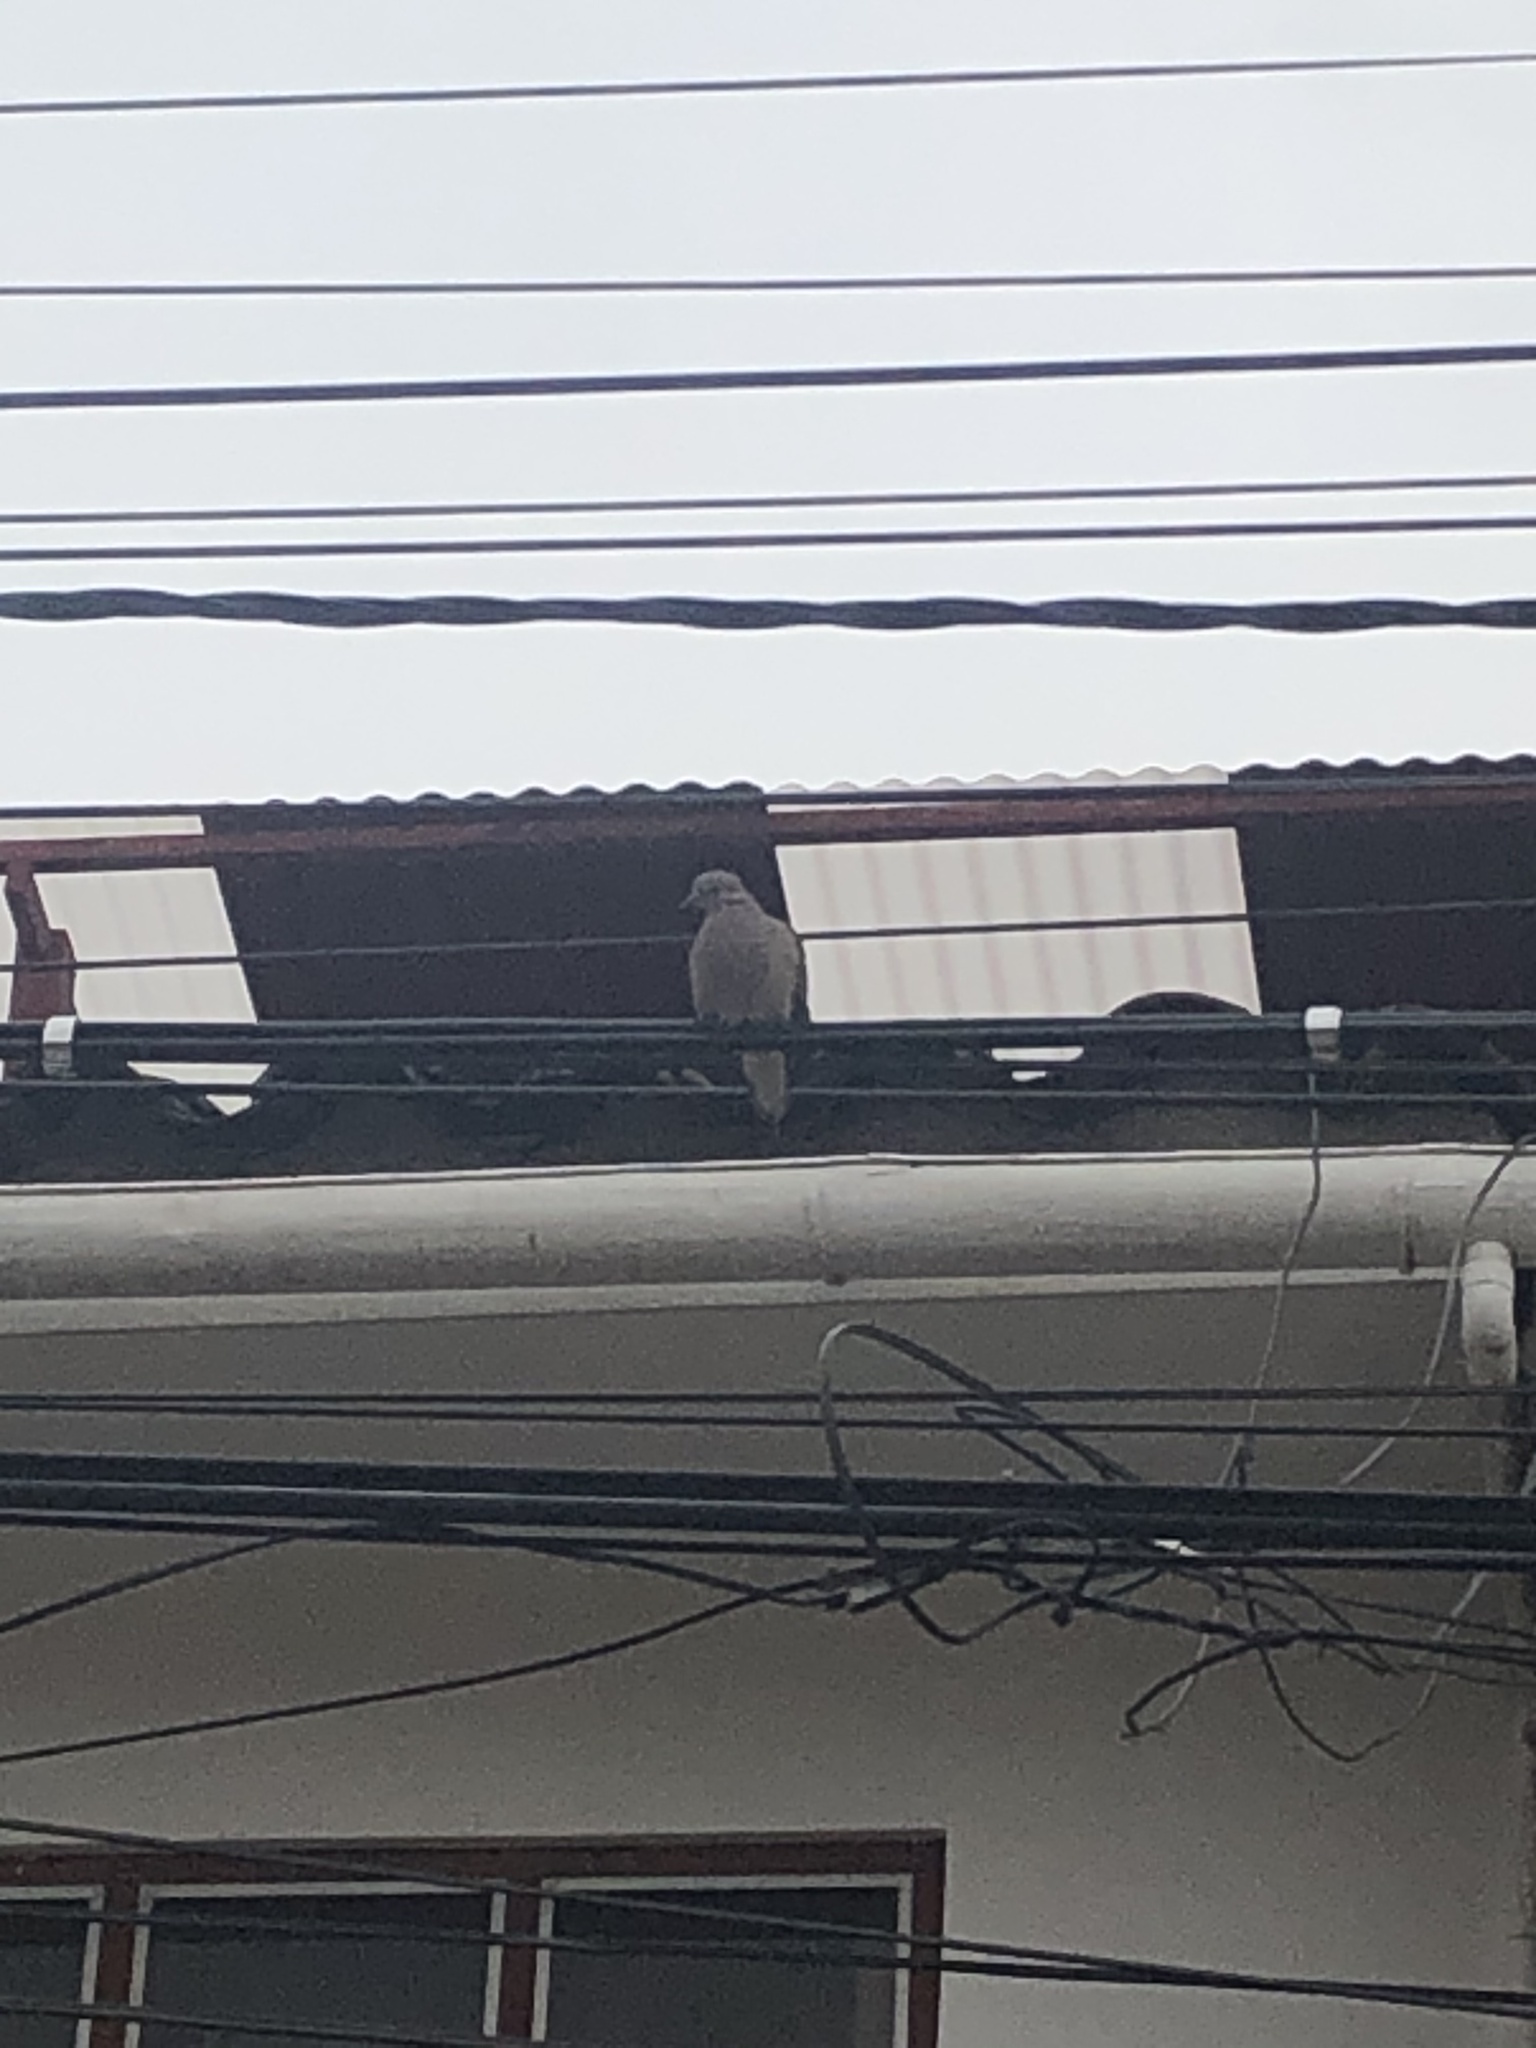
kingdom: Animalia
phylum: Chordata
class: Aves
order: Columbiformes
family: Columbidae
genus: Zenaida
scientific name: Zenaida auriculata
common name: Eared dove
